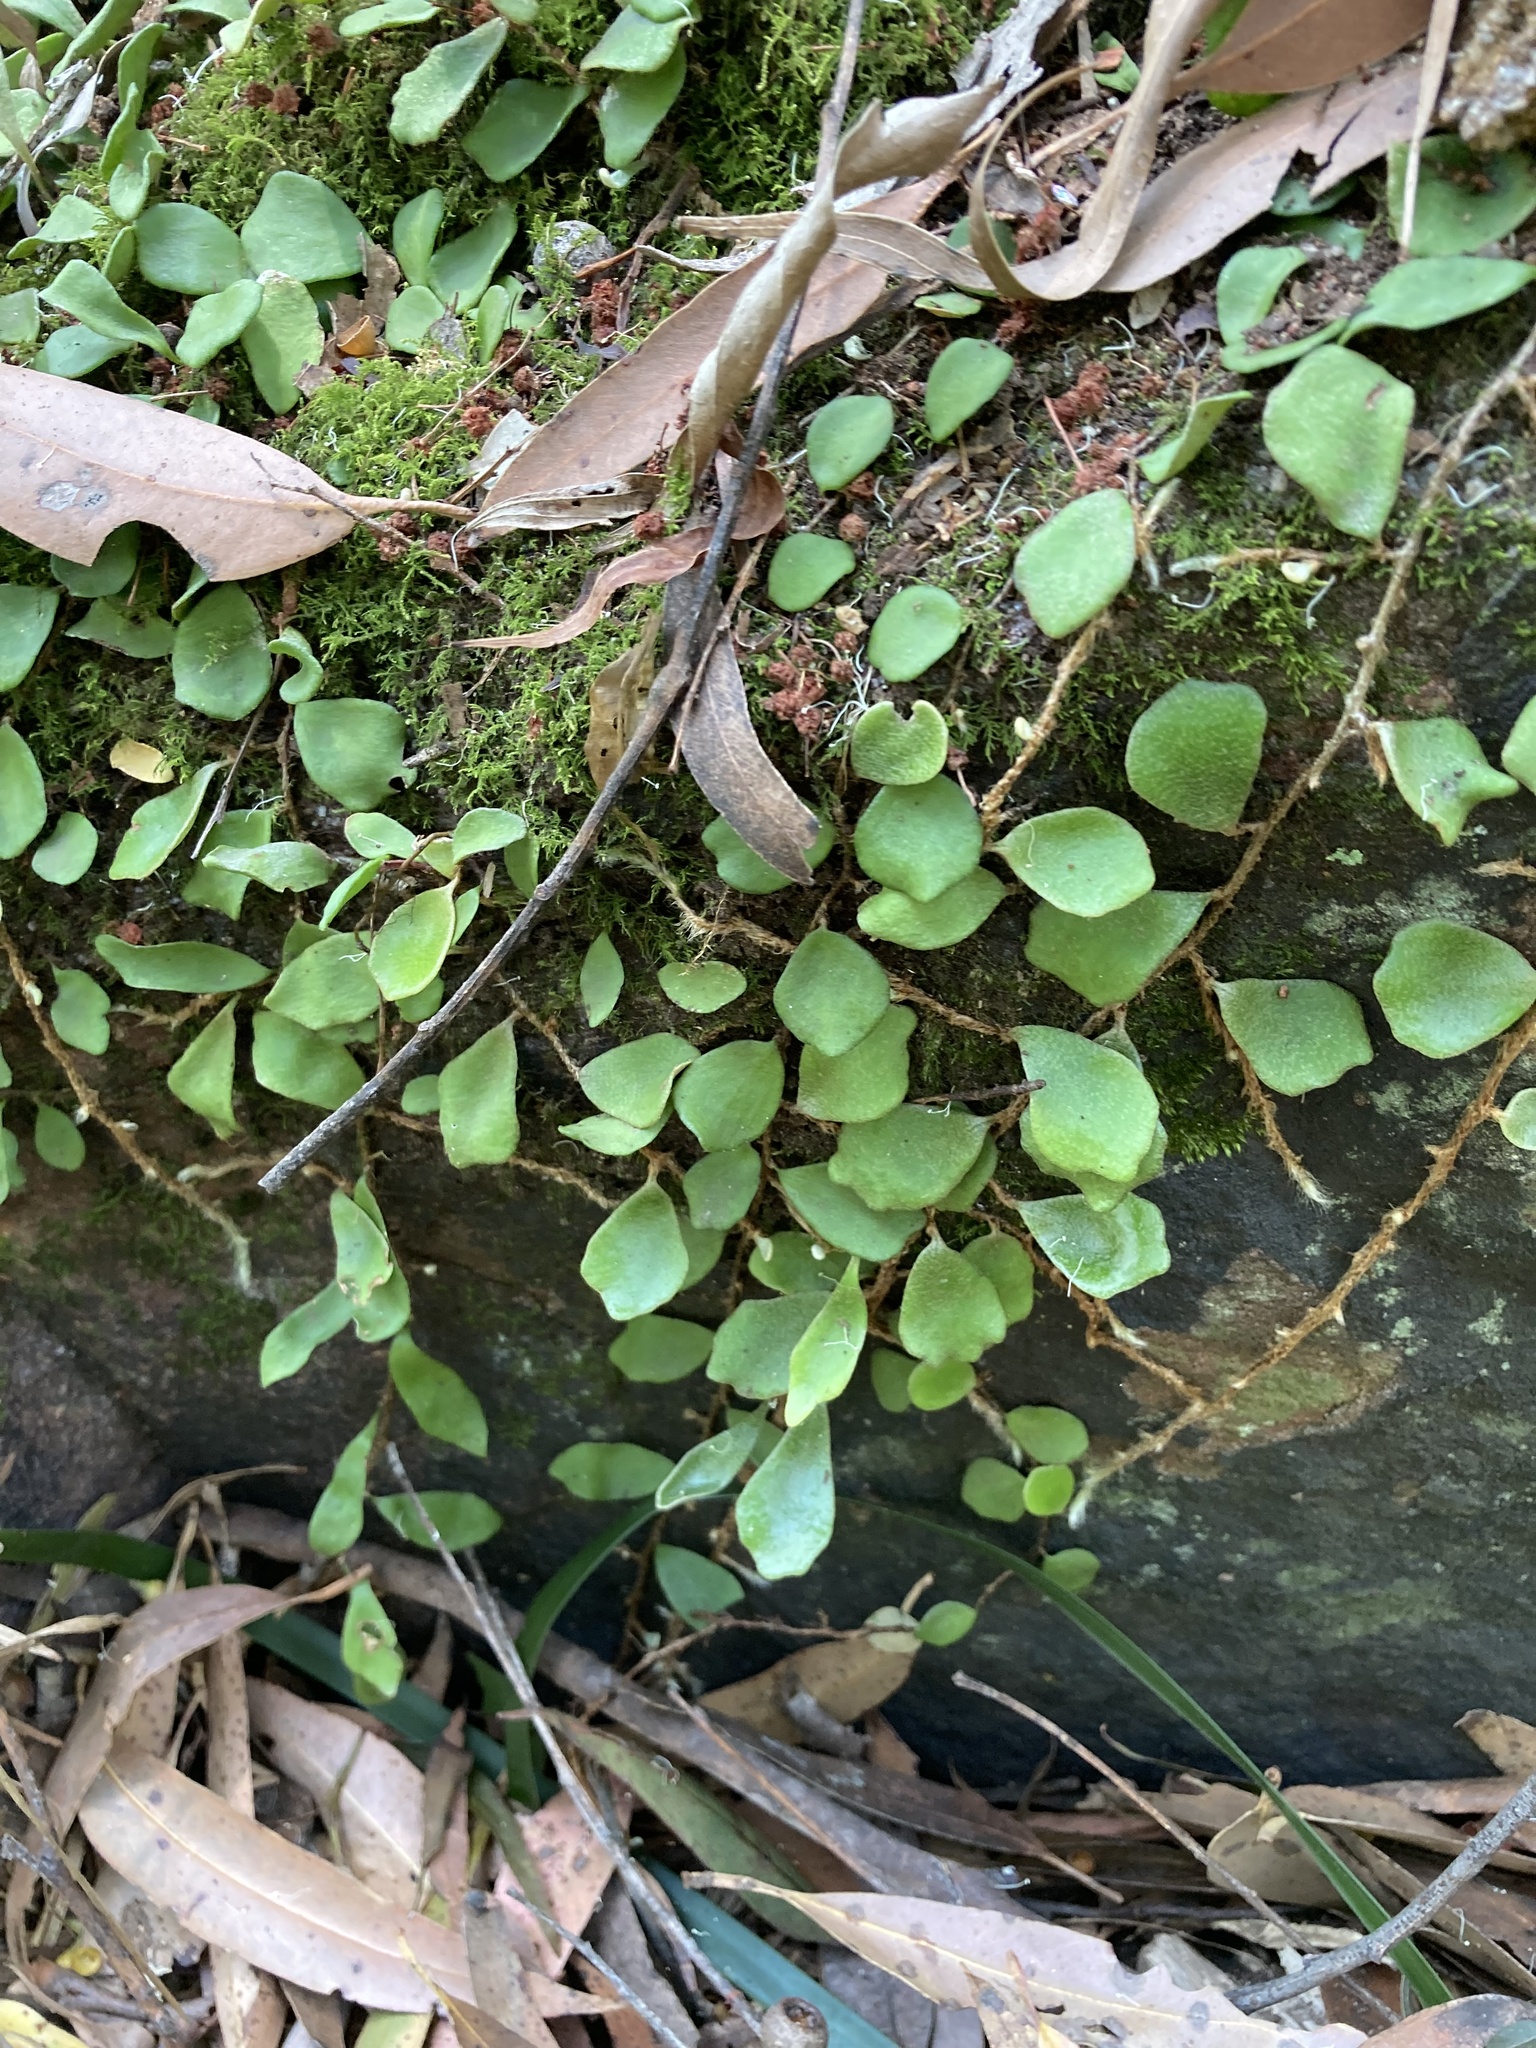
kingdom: Plantae
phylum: Tracheophyta
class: Polypodiopsida
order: Polypodiales
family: Polypodiaceae
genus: Pyrrosia
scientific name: Pyrrosia rupestris
